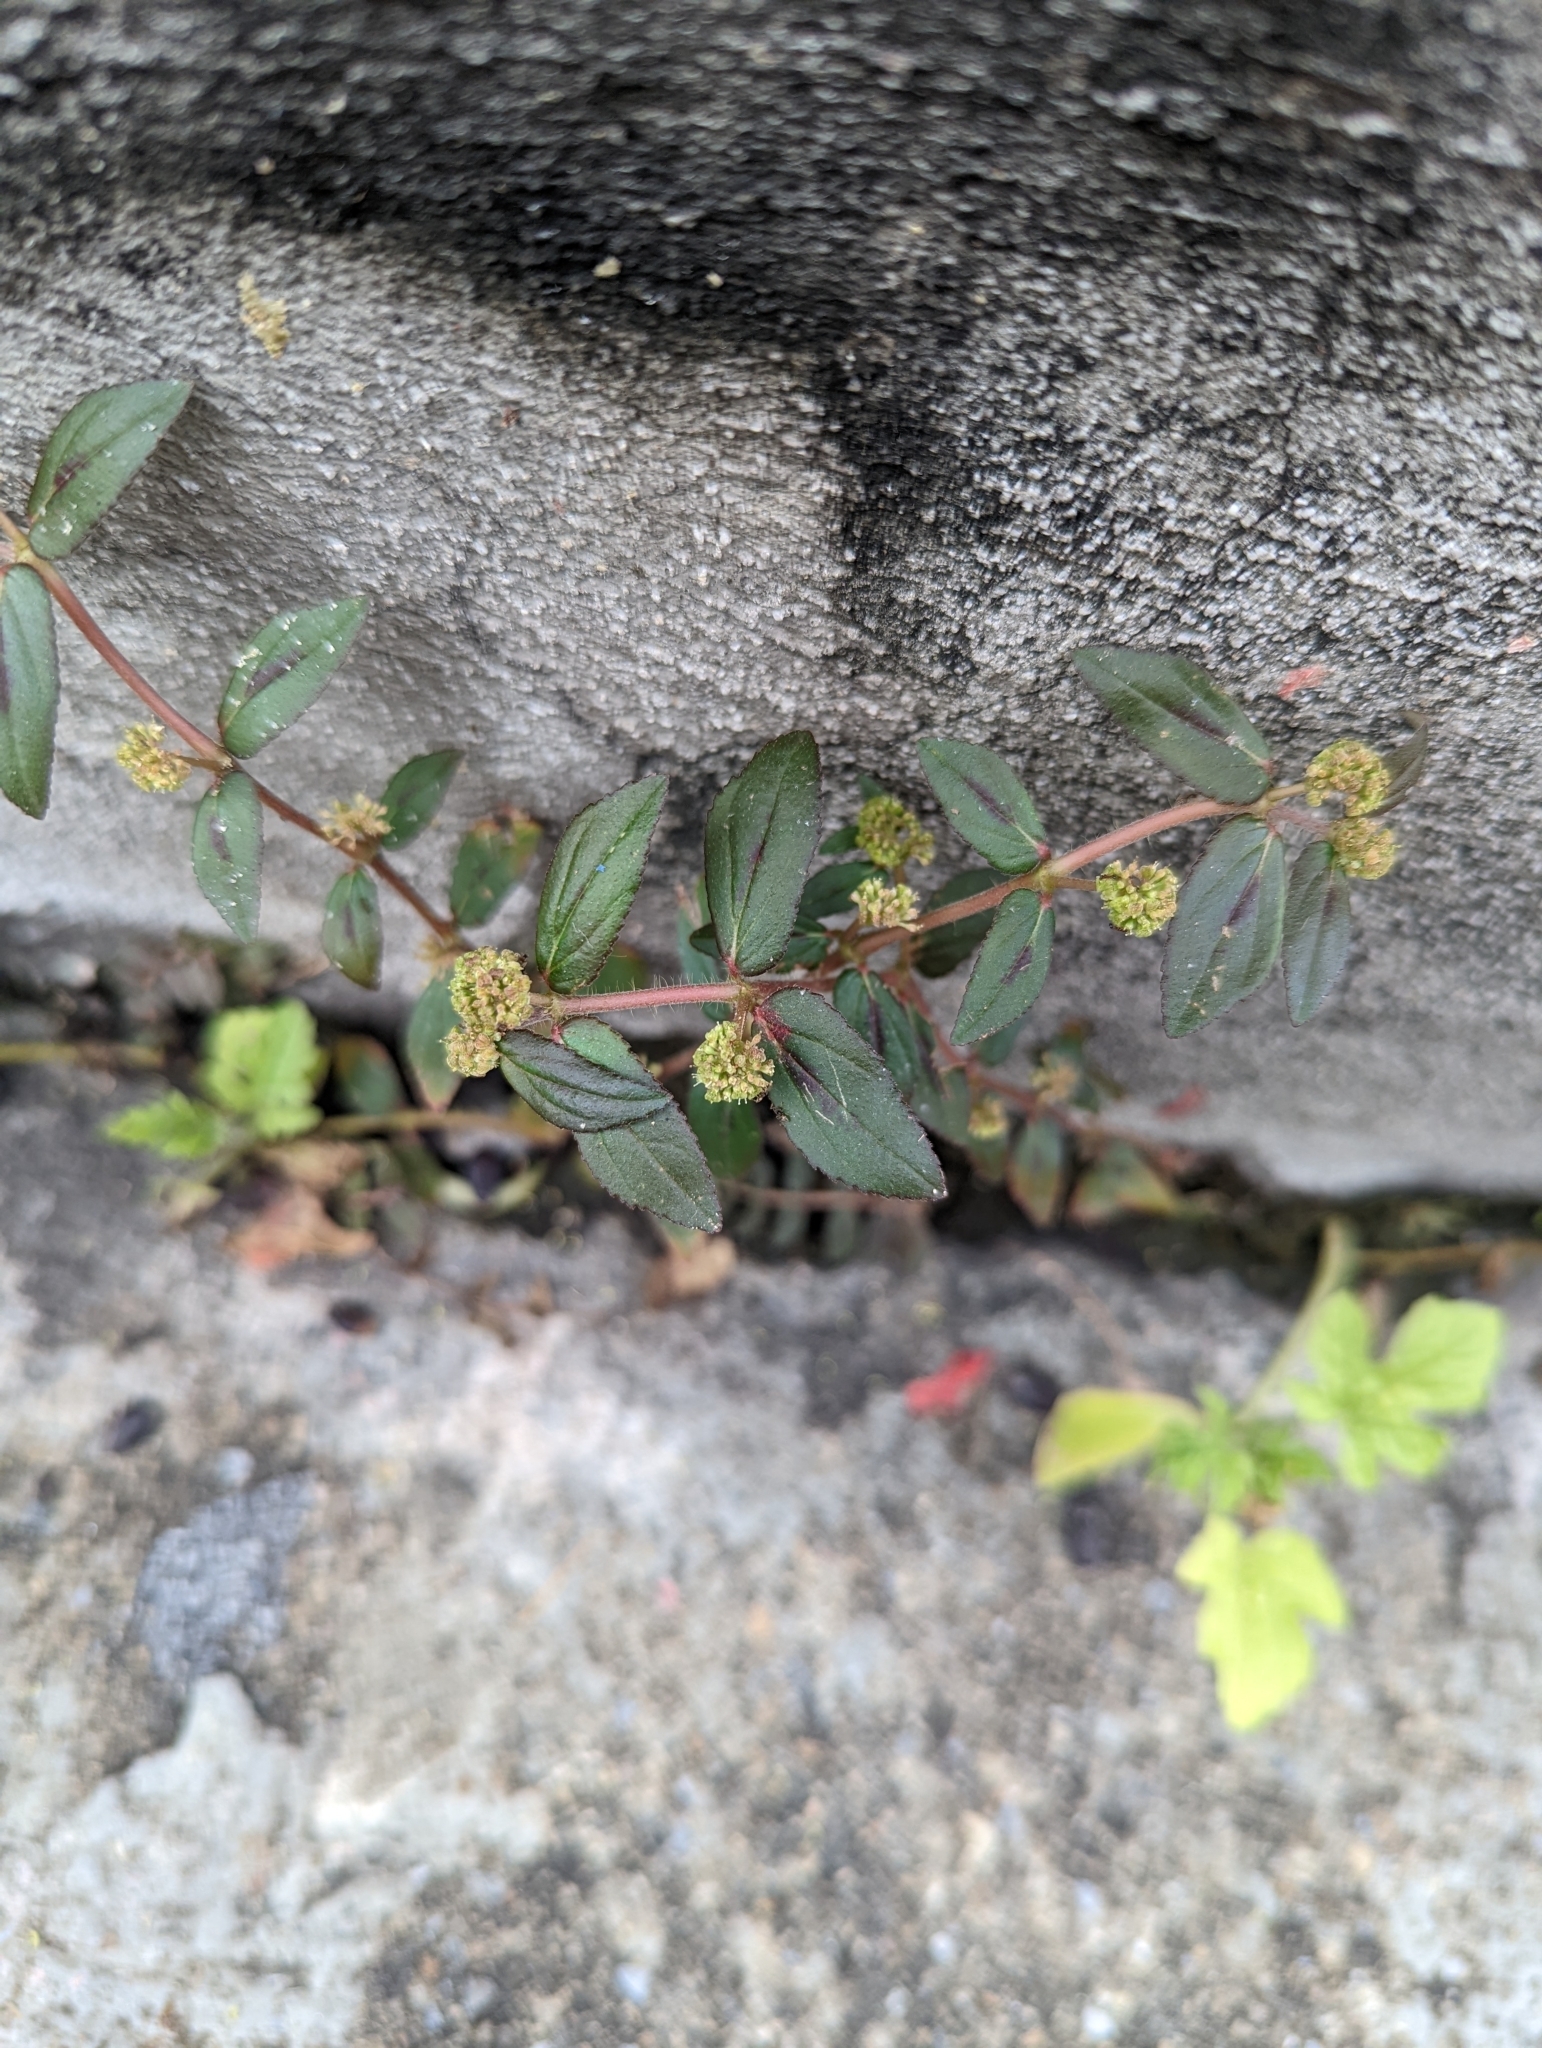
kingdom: Plantae
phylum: Tracheophyta
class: Magnoliopsida
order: Malpighiales
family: Euphorbiaceae
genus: Euphorbia
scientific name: Euphorbia hirta
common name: Pillpod sandmat
